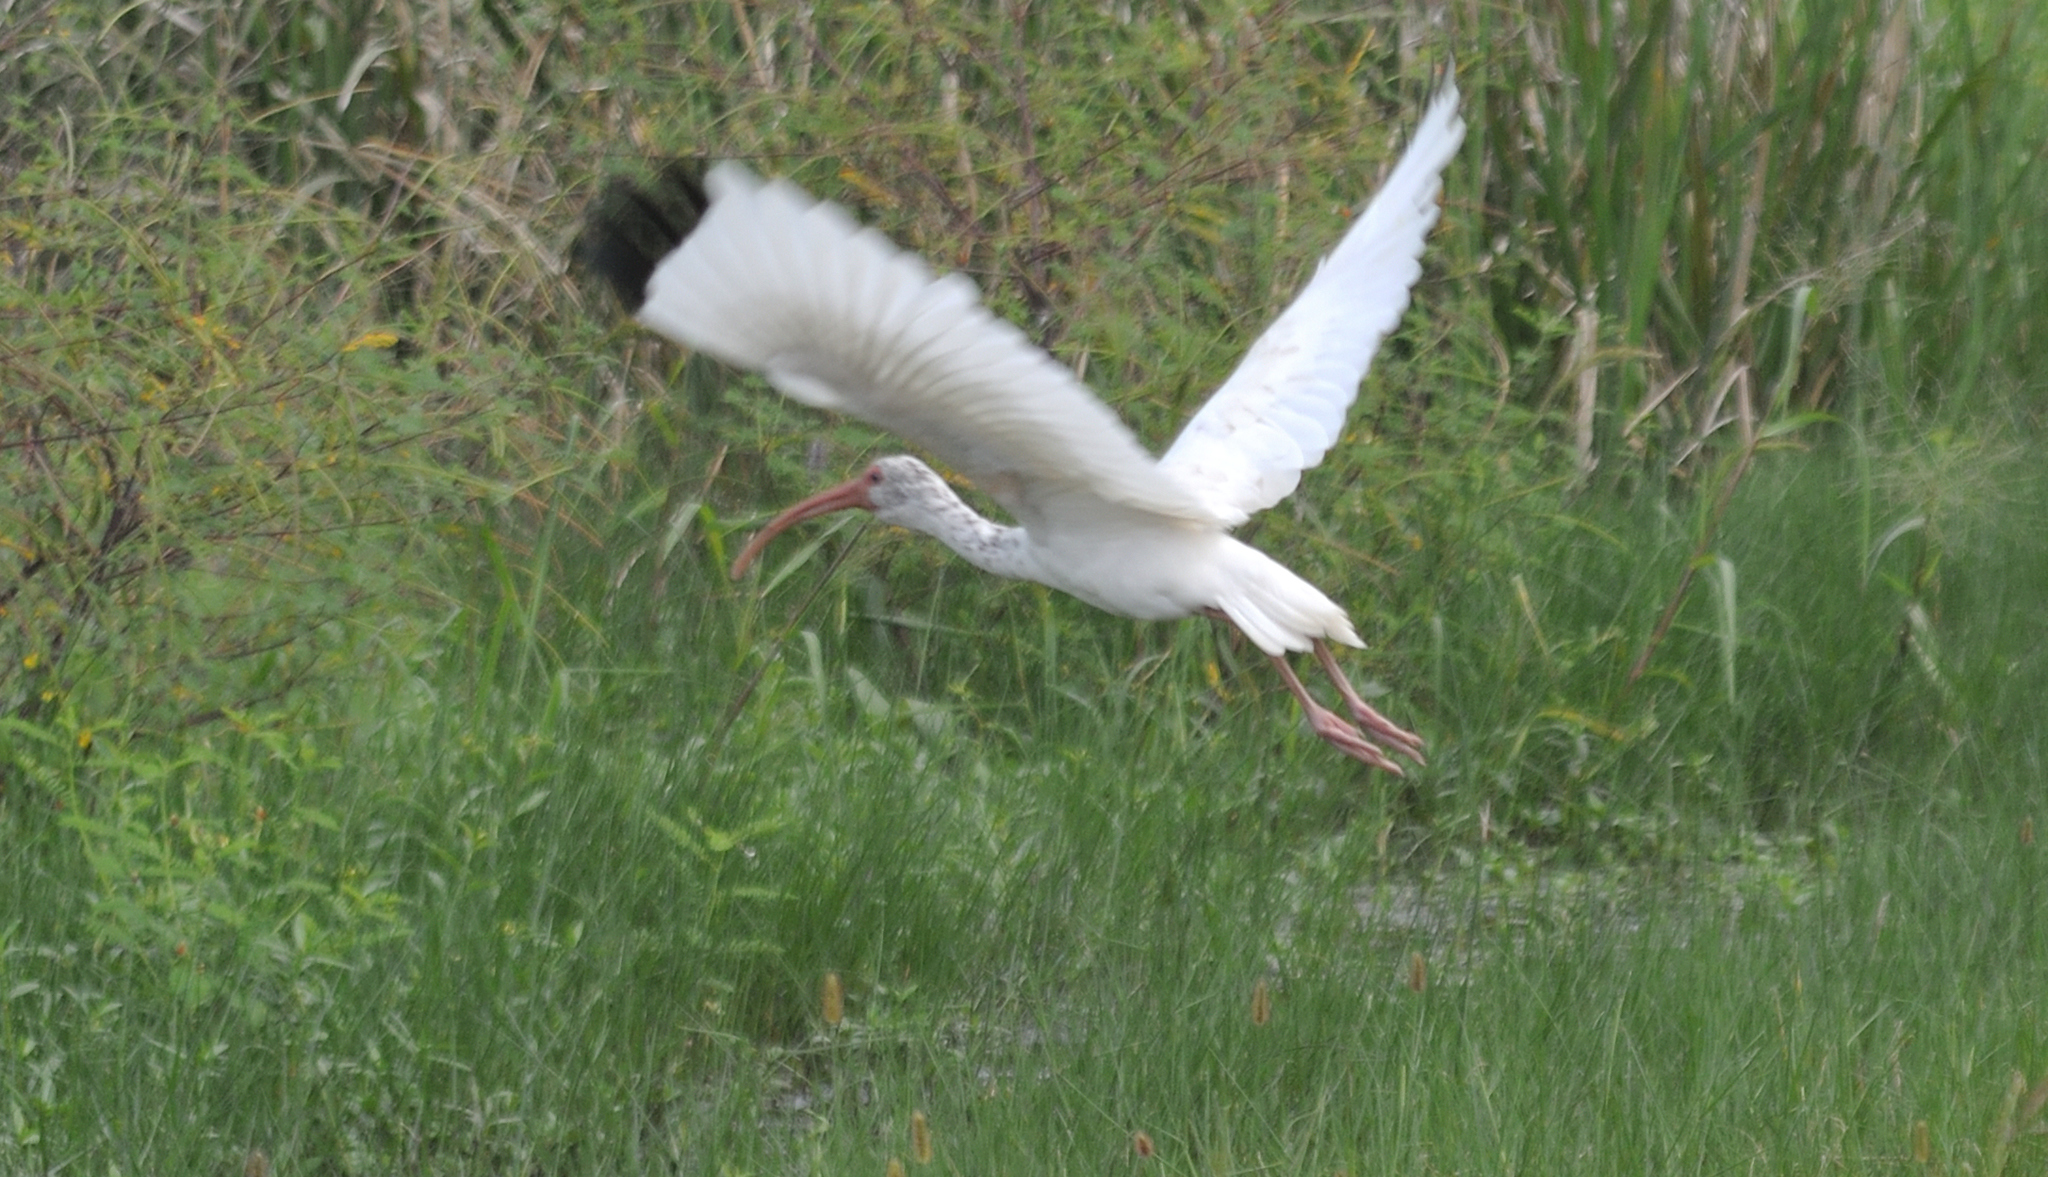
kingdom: Animalia
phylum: Chordata
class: Aves
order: Pelecaniformes
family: Threskiornithidae
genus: Eudocimus
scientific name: Eudocimus albus
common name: White ibis
